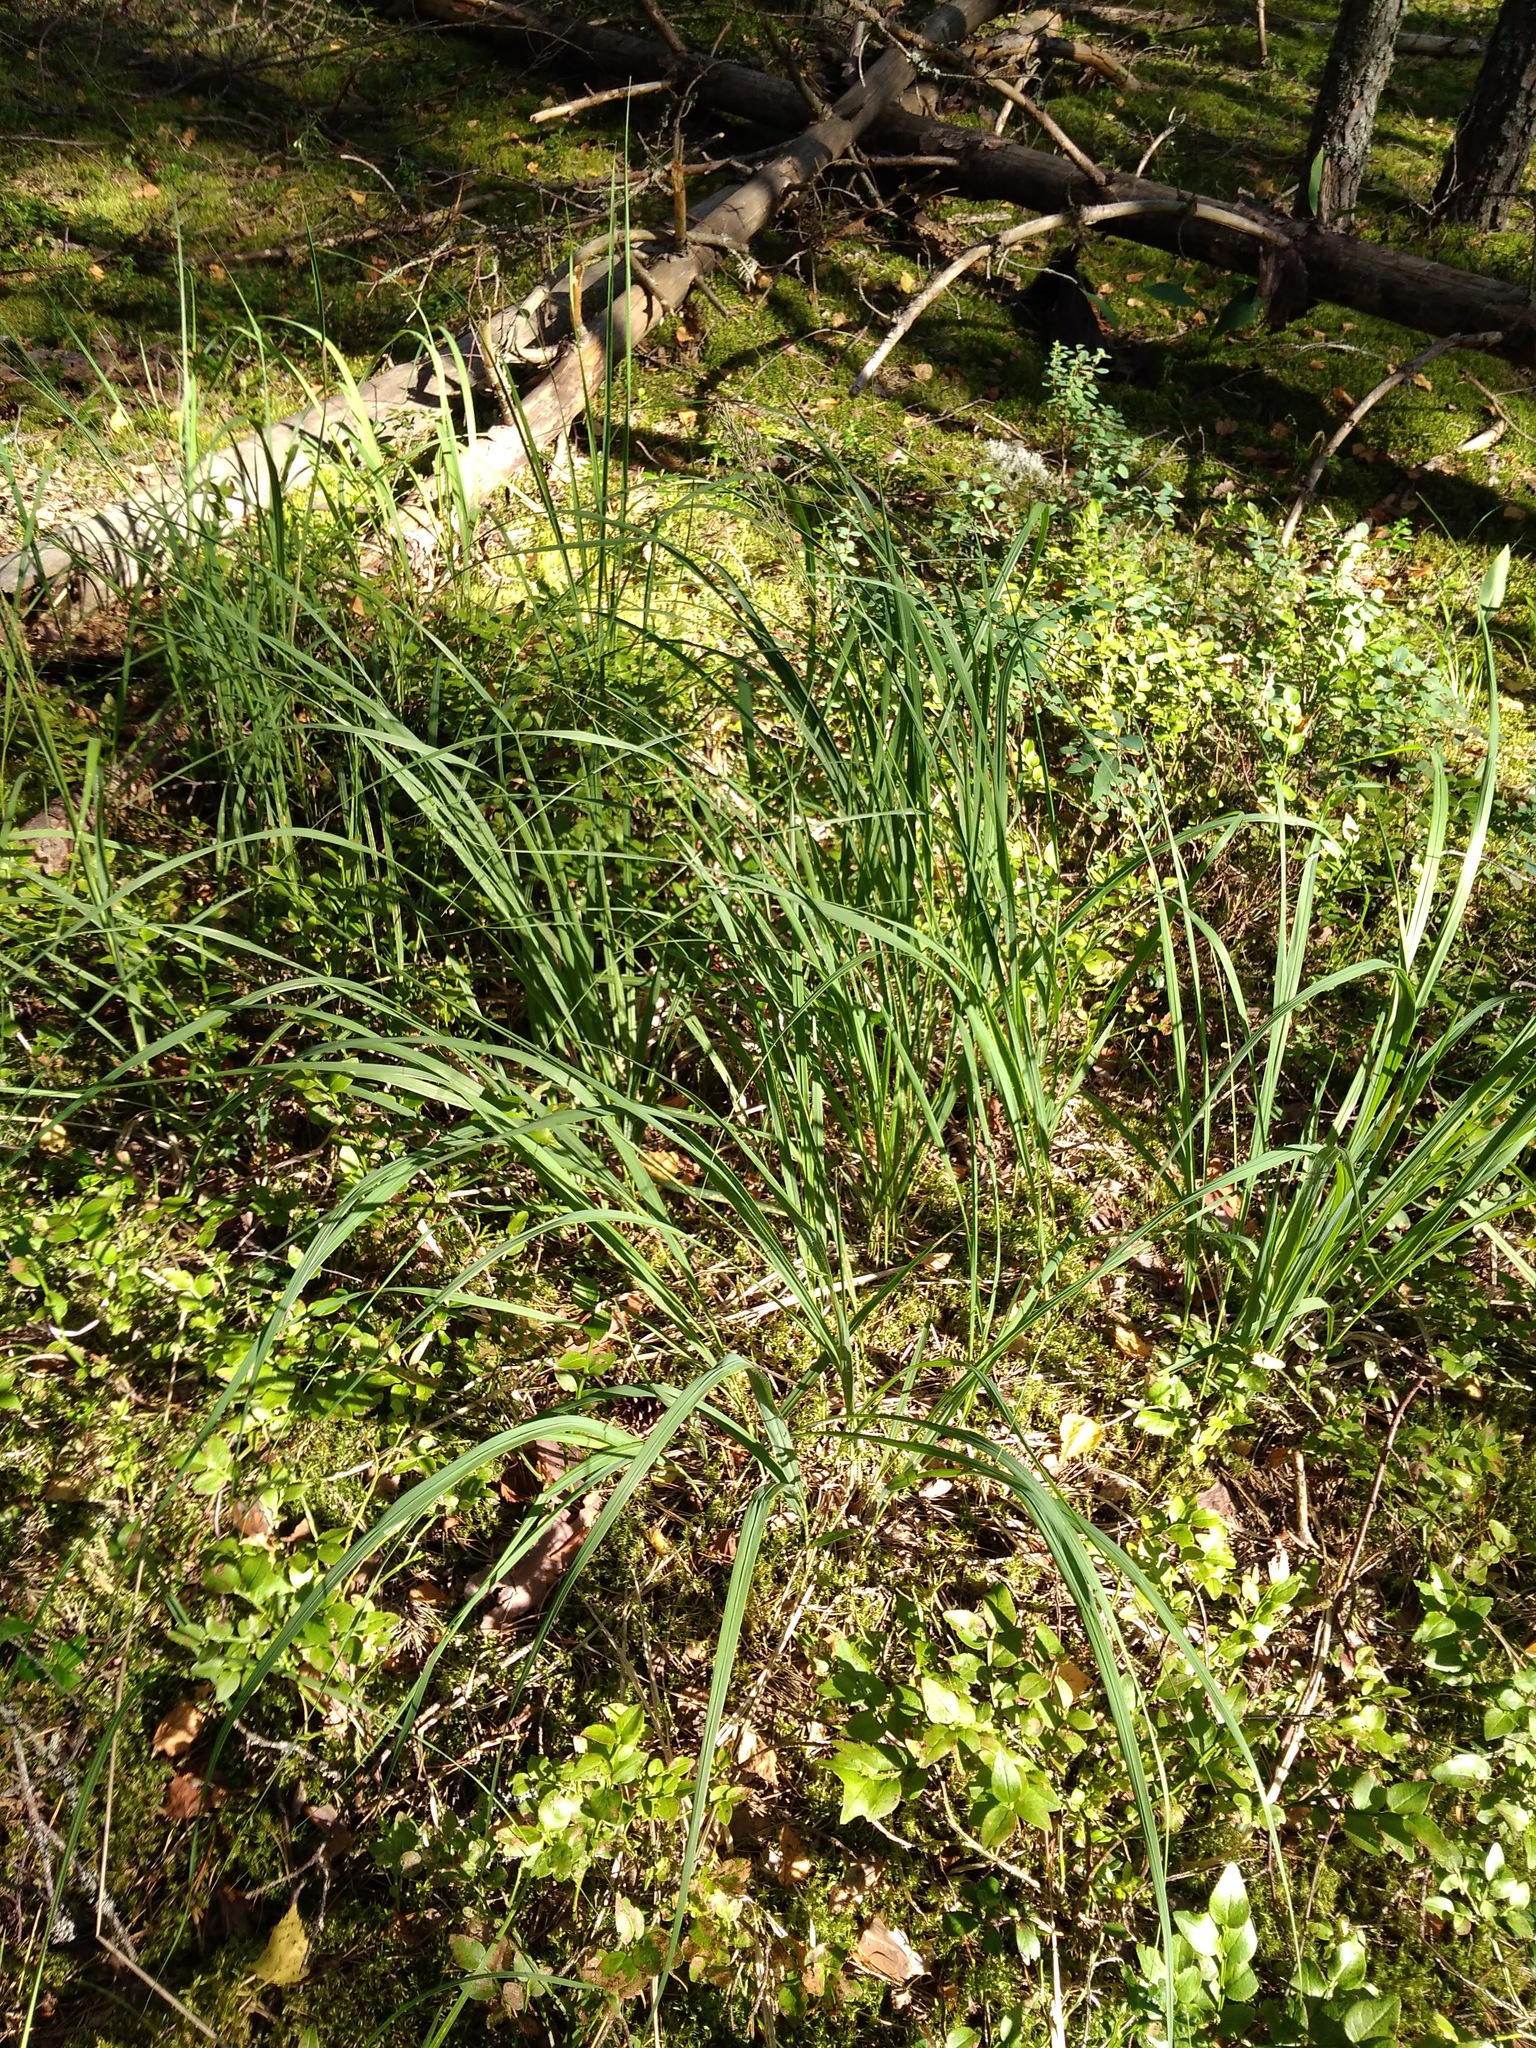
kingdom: Plantae
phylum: Tracheophyta
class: Liliopsida
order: Poales
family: Poaceae
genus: Molinia
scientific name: Molinia caerulea
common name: Purple moor-grass
